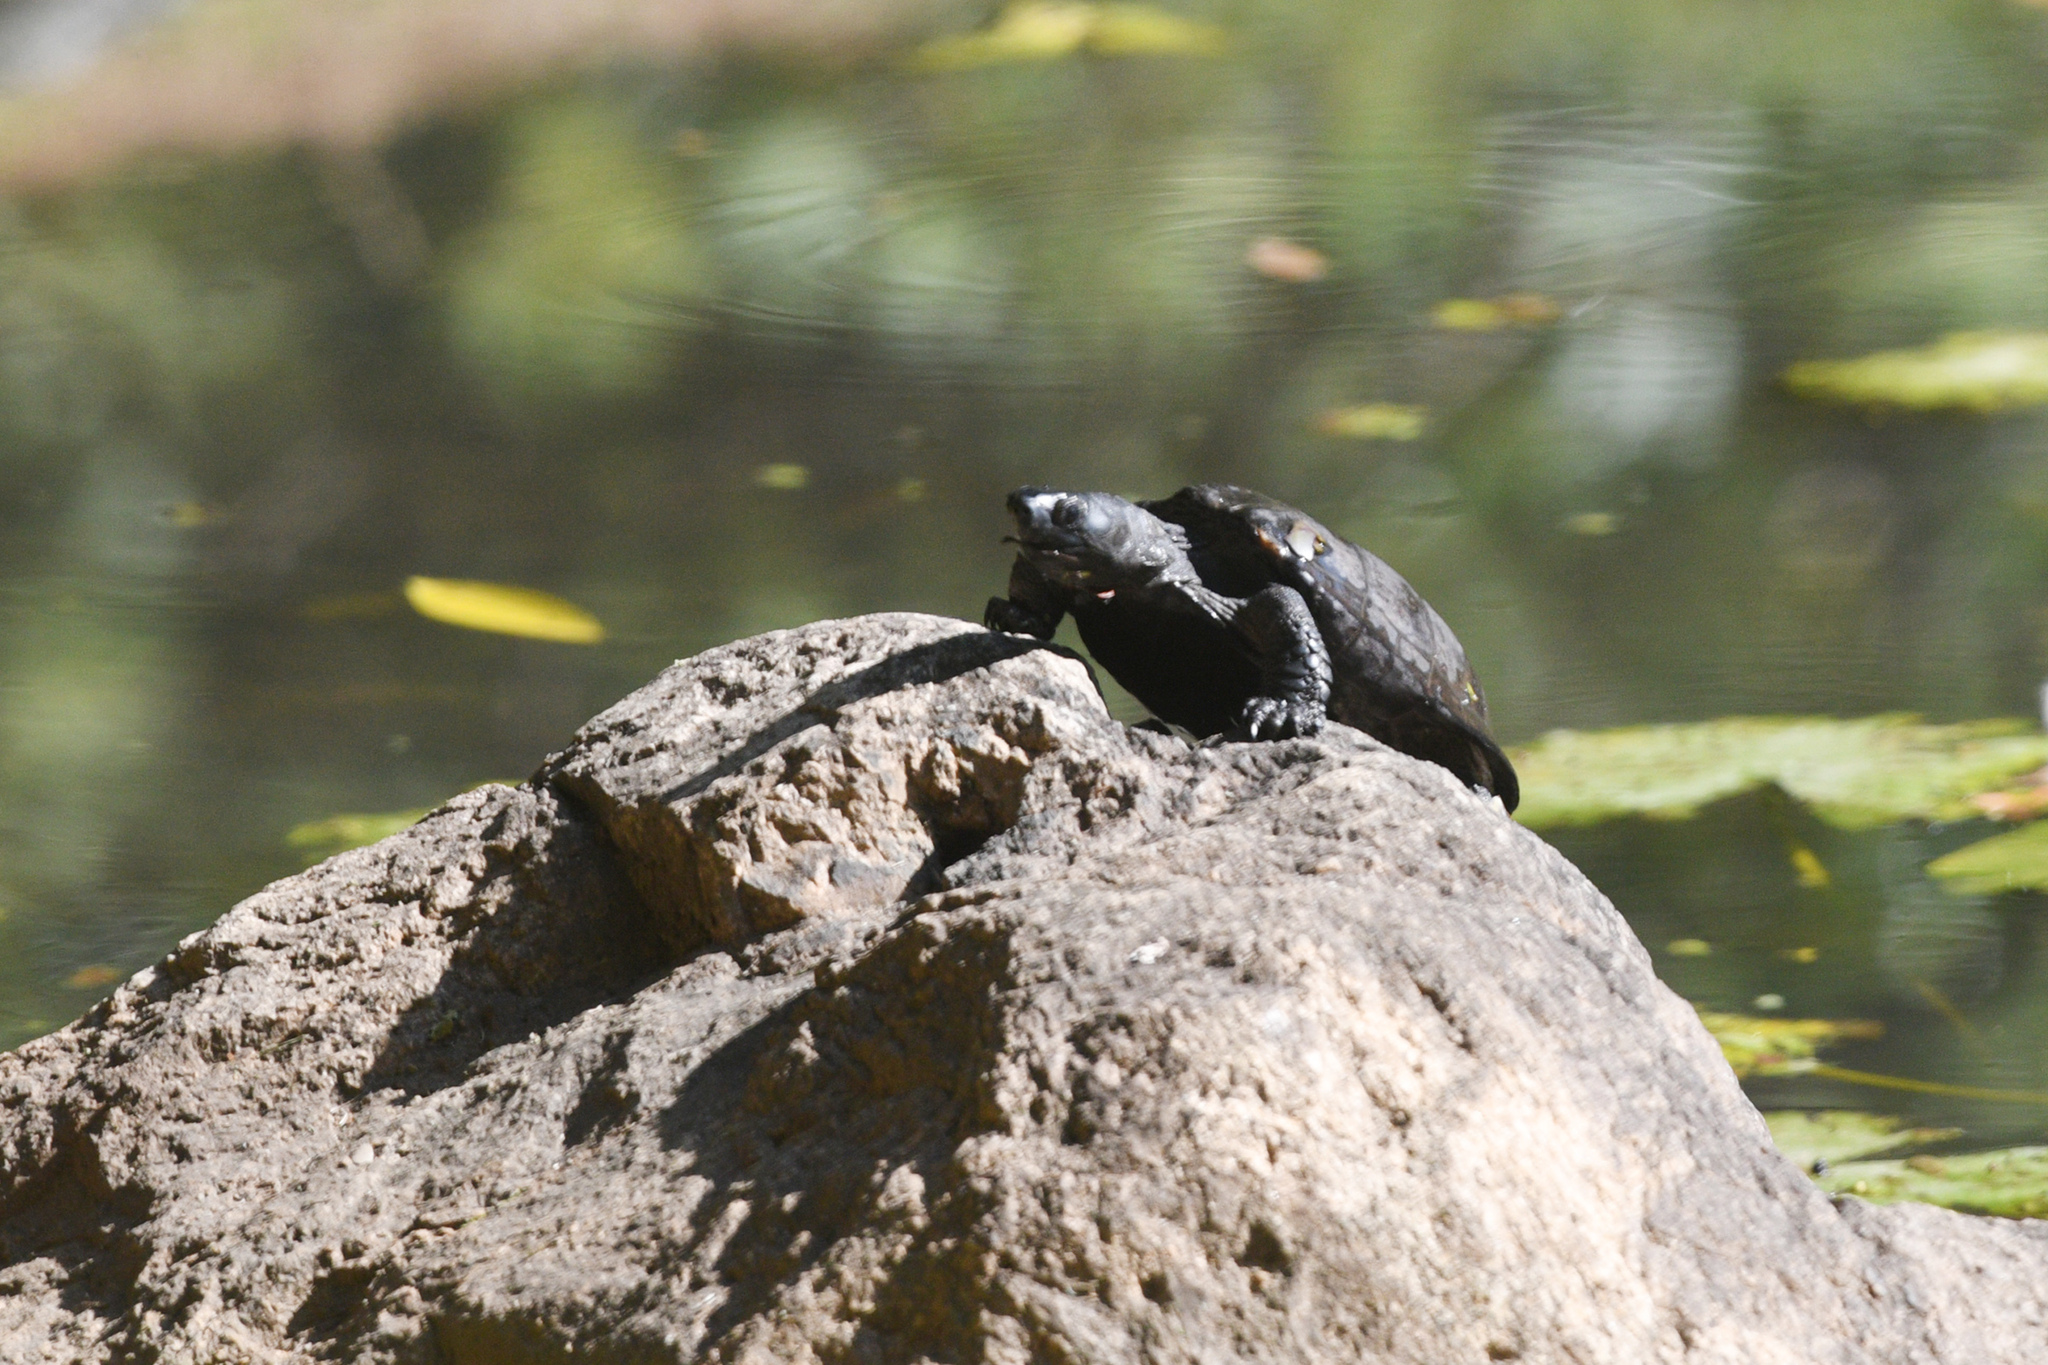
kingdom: Animalia
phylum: Chordata
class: Testudines
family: Geoemydidae
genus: Mauremys
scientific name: Mauremys reevesii
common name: Chinese pond turtle
